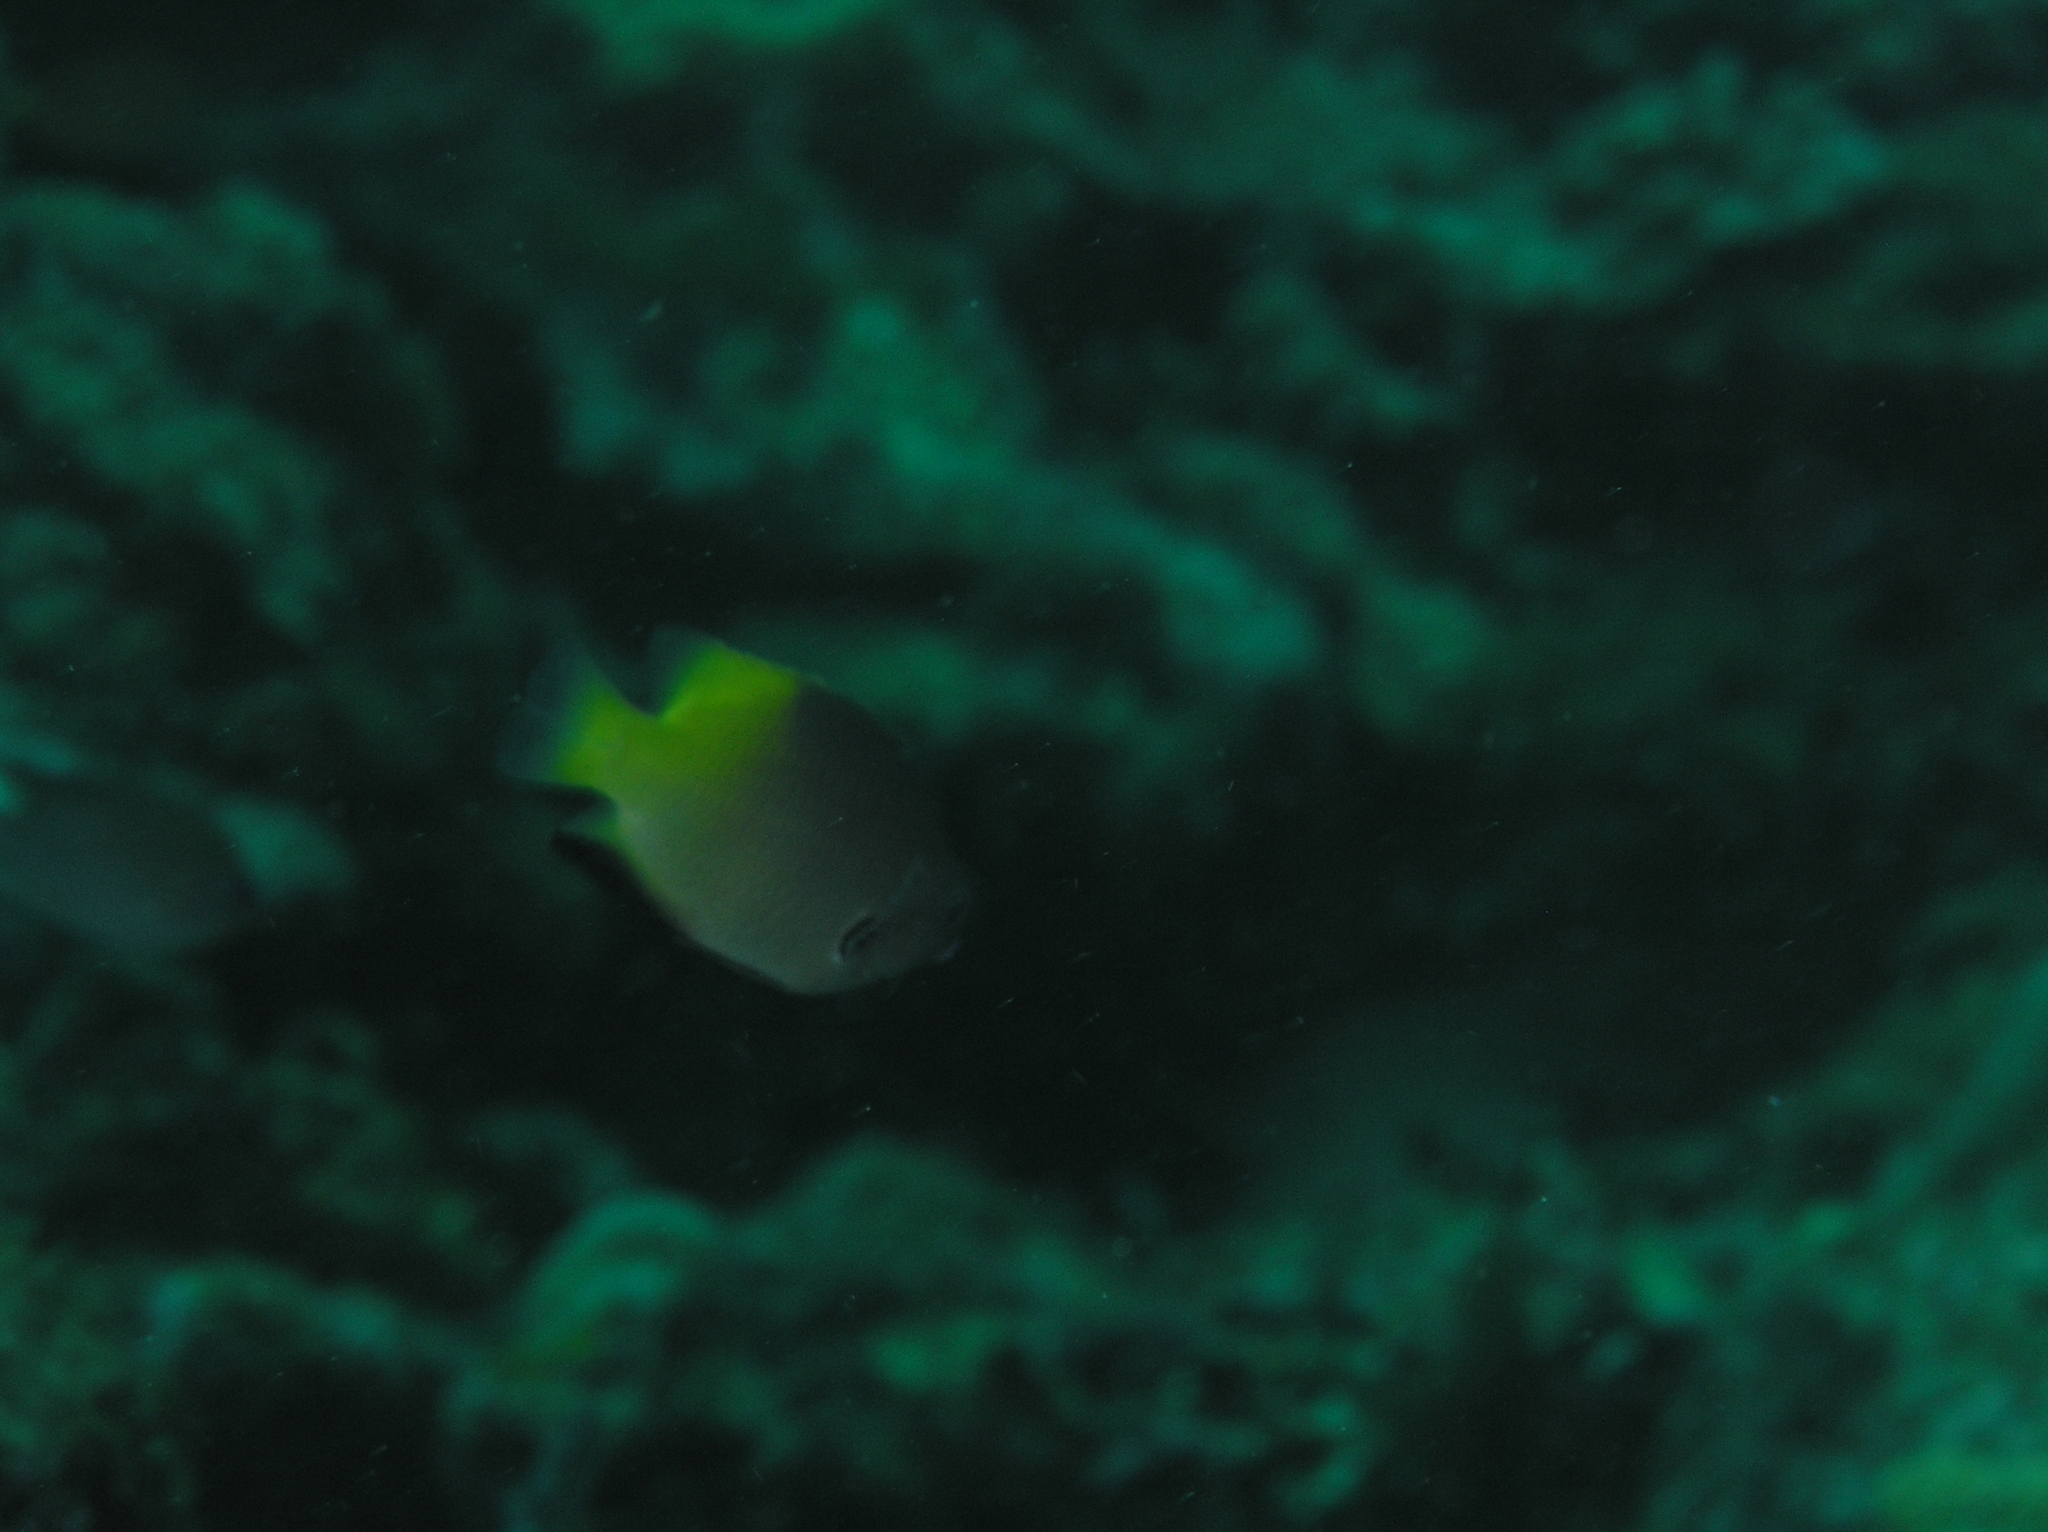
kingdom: Animalia
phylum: Chordata
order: Perciformes
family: Pomacentridae
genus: Pomacentrus
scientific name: Pomacentrus nigromanus
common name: Black-axil damsel
